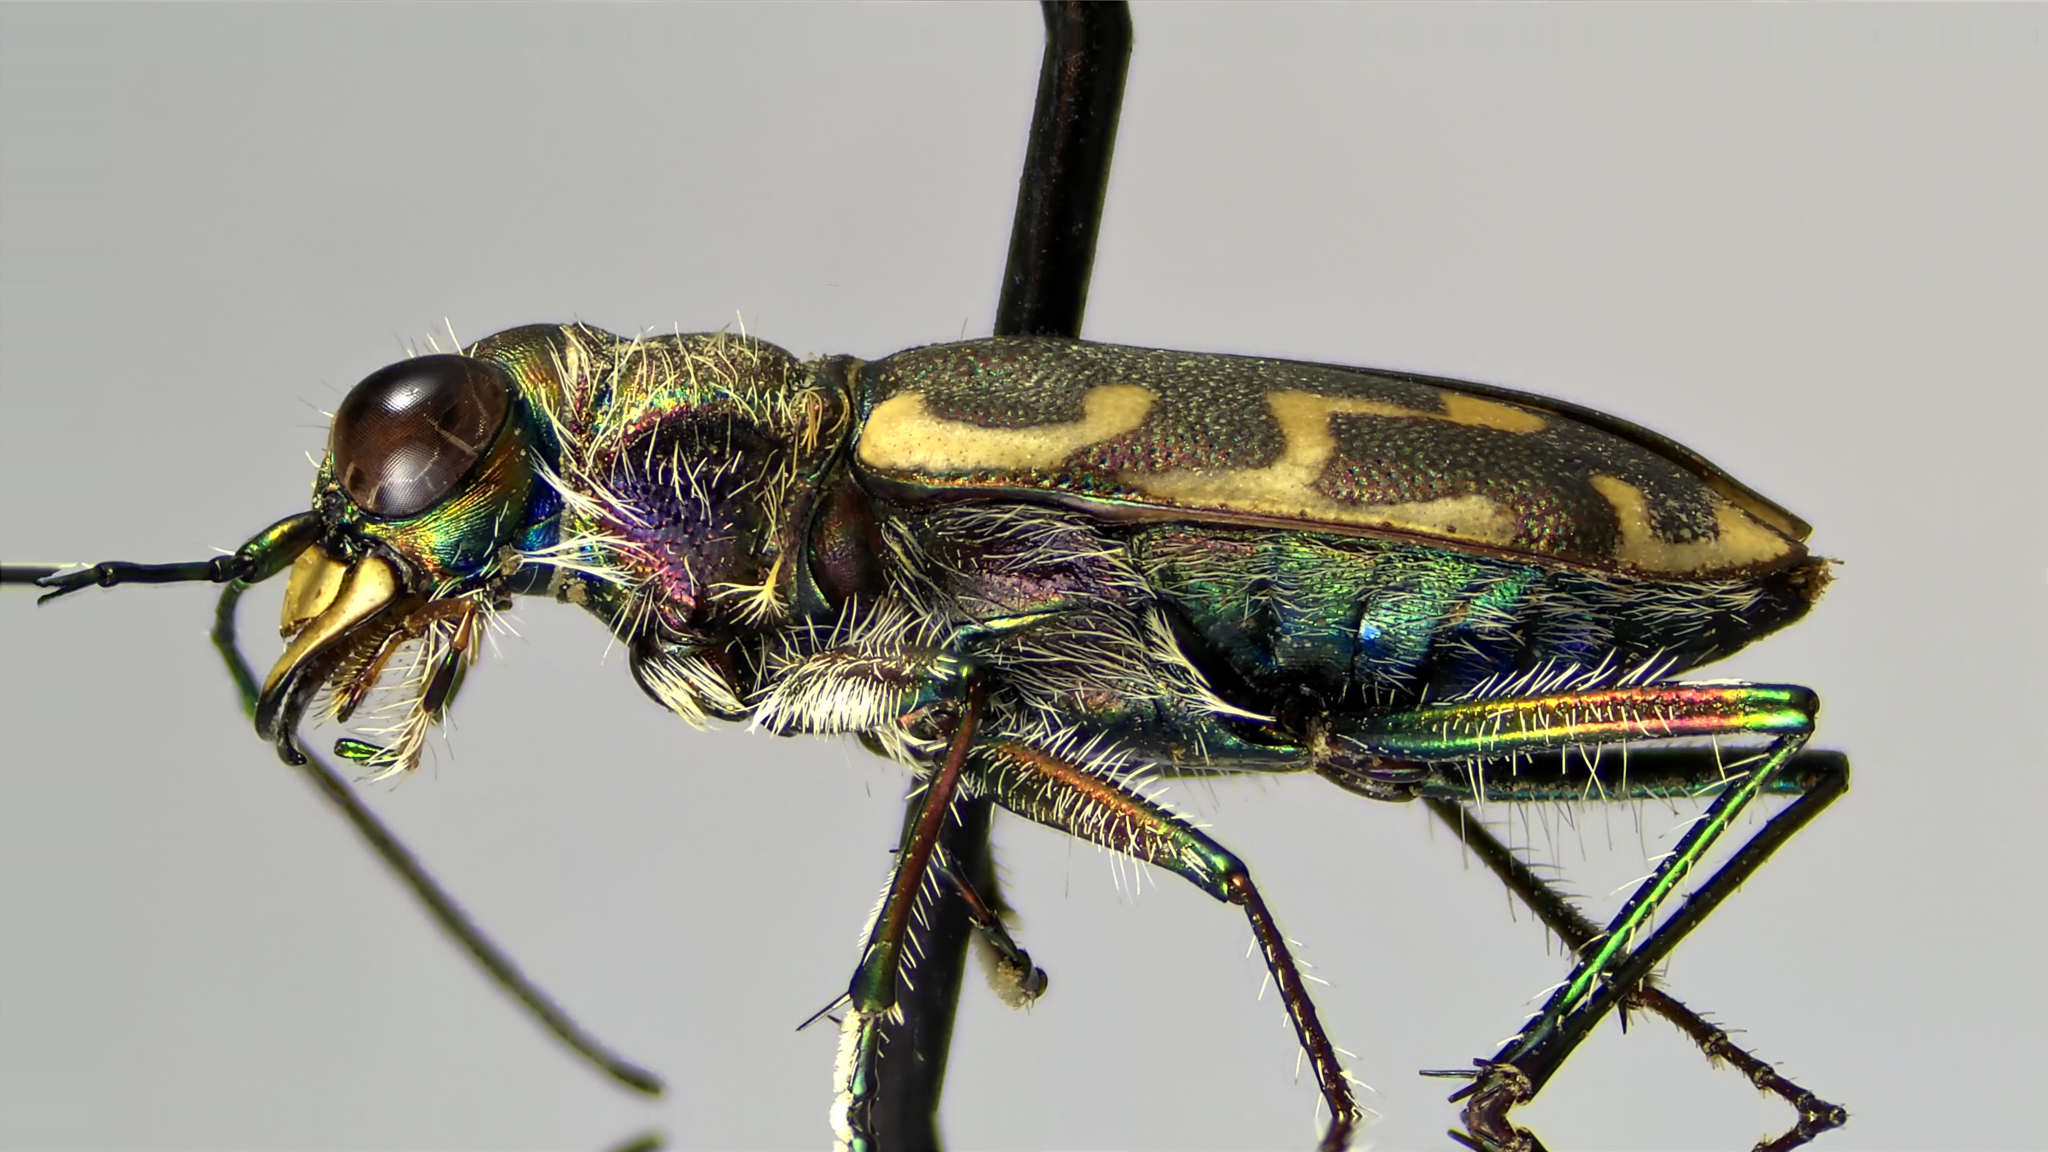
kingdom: Animalia
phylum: Arthropoda
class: Insecta
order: Coleoptera
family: Carabidae
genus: Cicindela
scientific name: Cicindela repanda
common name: Bronzed tiger beetle
